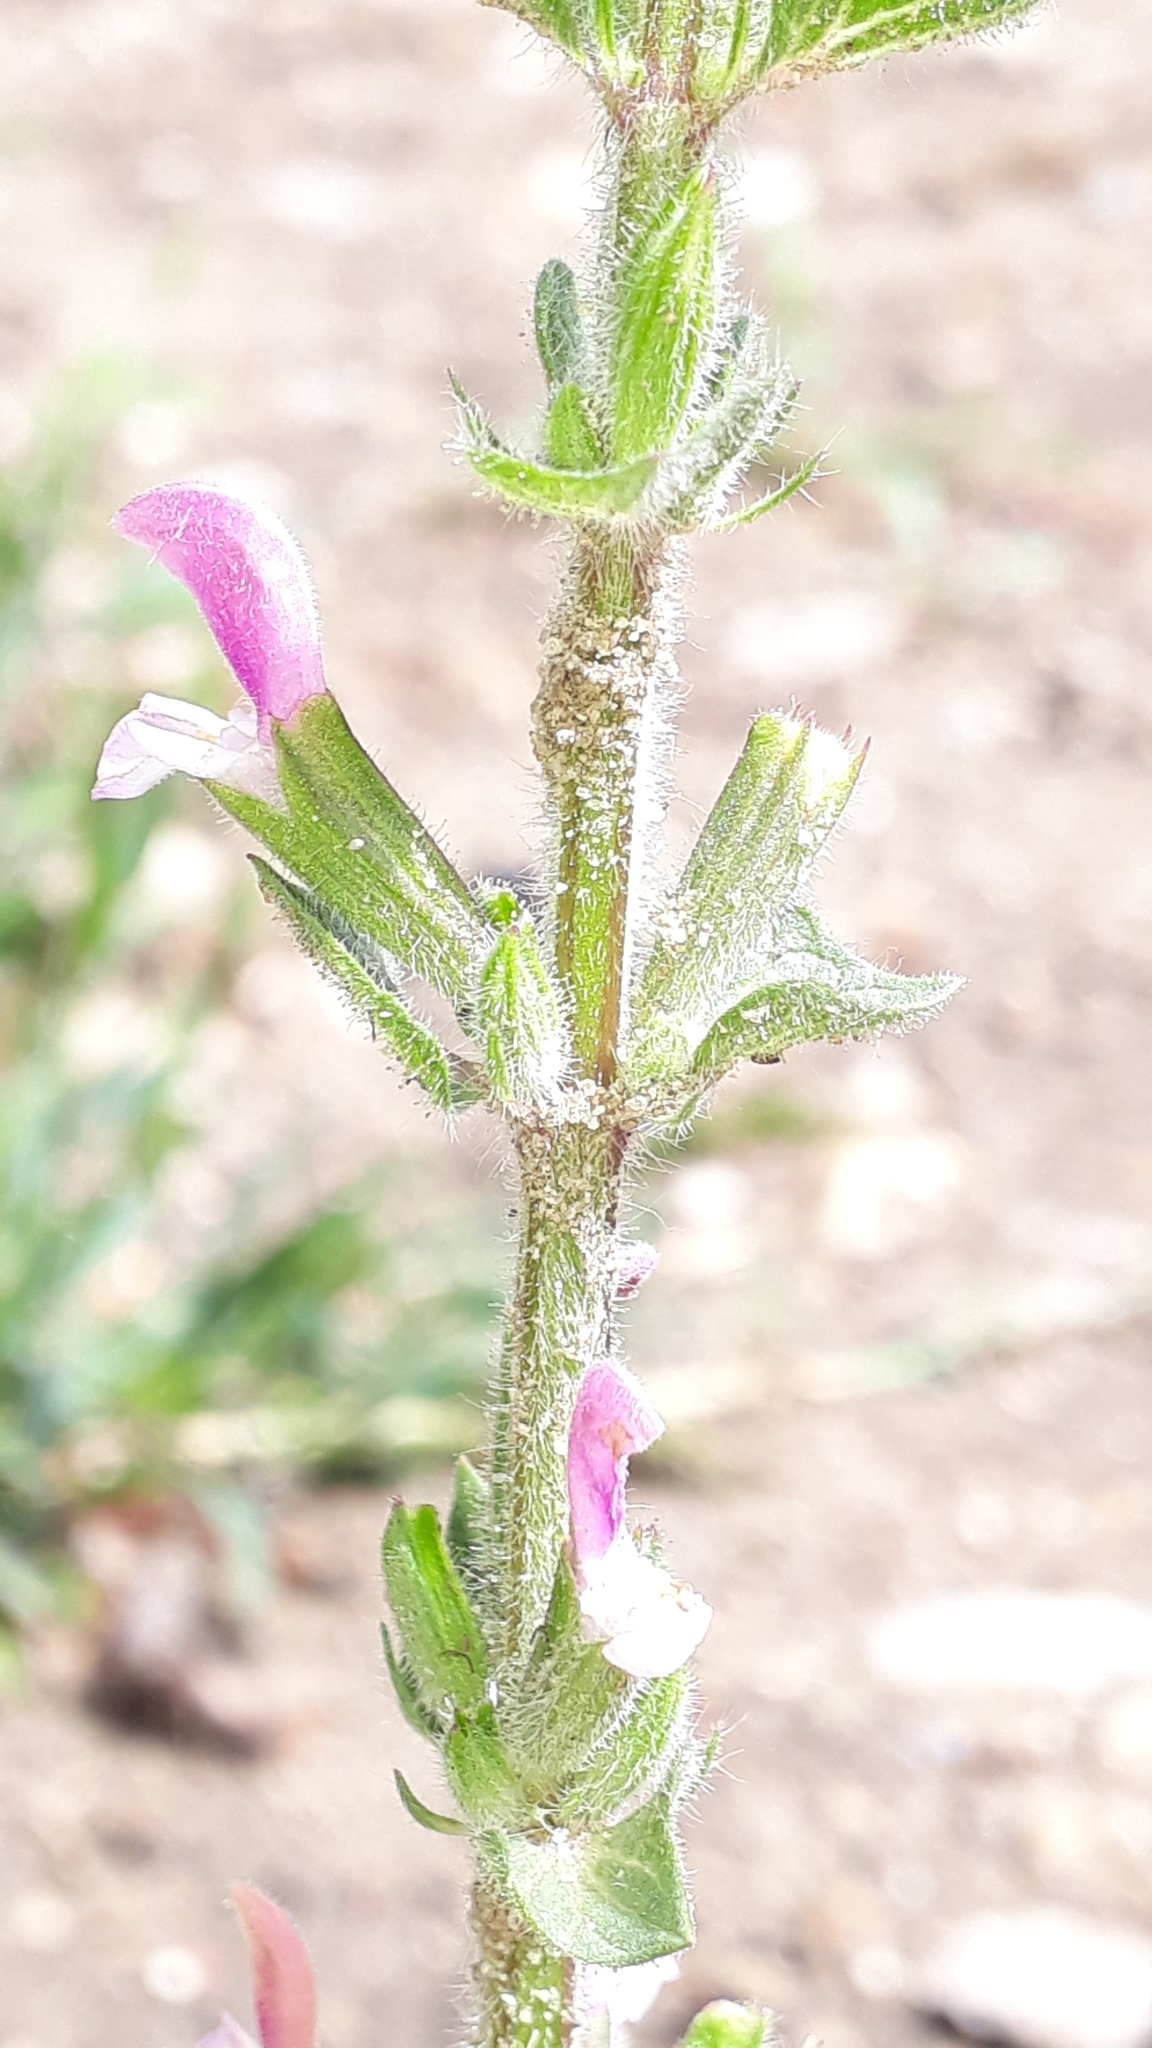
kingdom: Plantae
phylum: Tracheophyta
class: Magnoliopsida
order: Lamiales
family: Lamiaceae
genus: Salvia
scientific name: Salvia viridis
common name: Annual clary
